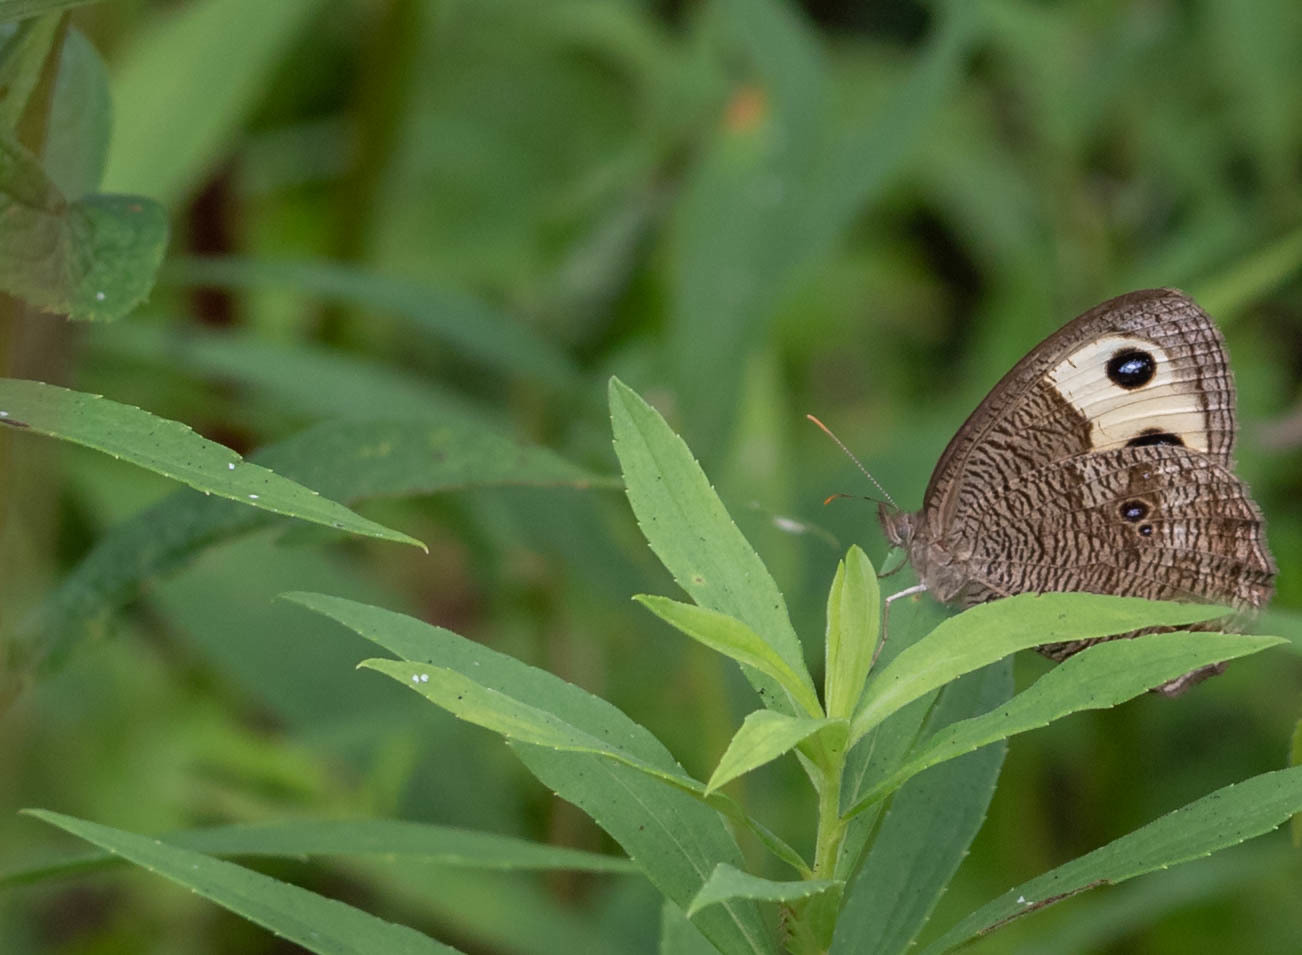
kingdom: Animalia
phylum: Arthropoda
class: Insecta
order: Lepidoptera
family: Nymphalidae
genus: Cercyonis
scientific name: Cercyonis pegala
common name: Common wood-nymph
